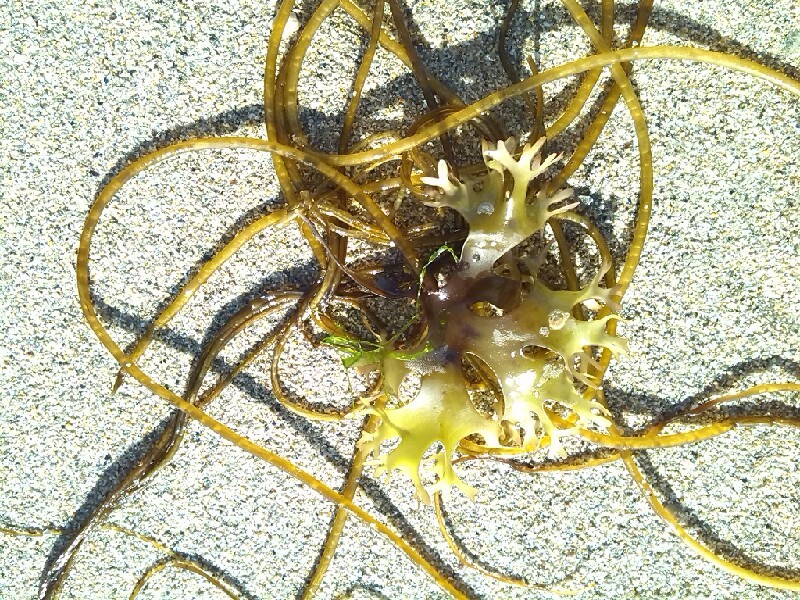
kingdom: Plantae
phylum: Rhodophyta
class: Florideophyceae
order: Gigartinales
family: Gigartinaceae
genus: Chondrus
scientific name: Chondrus crispus
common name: Carrageen
